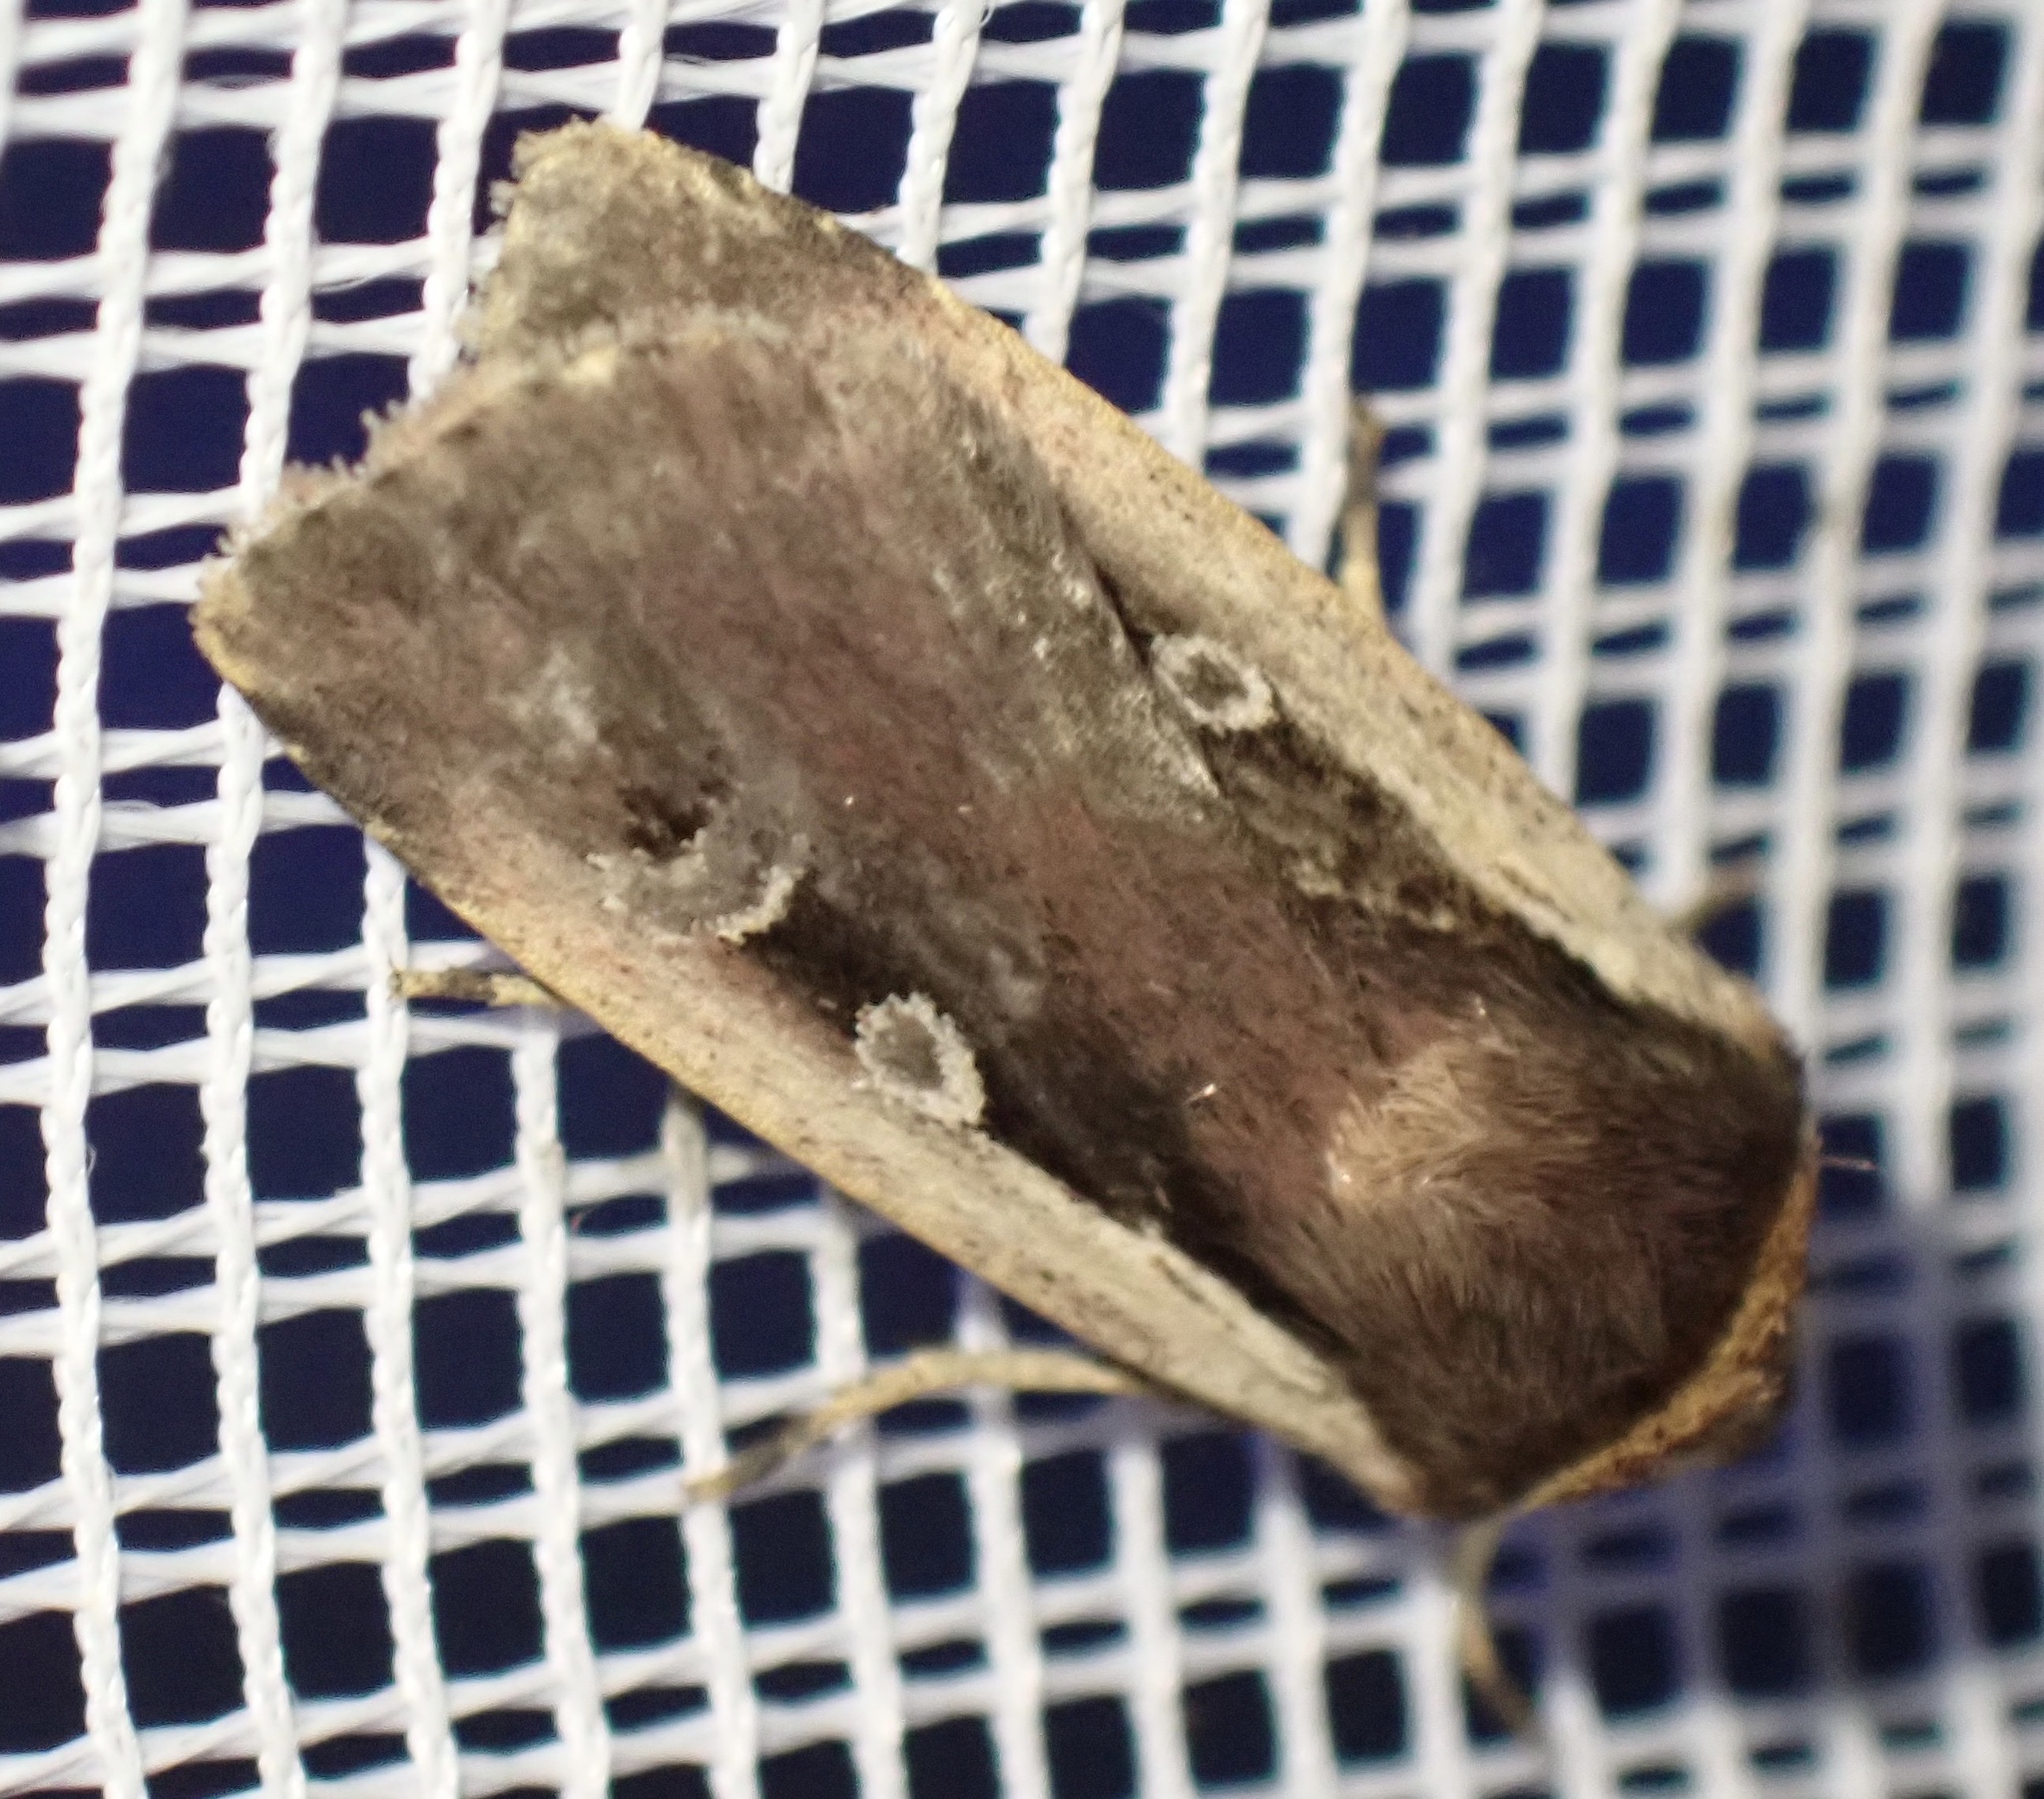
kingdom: Animalia
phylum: Arthropoda
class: Insecta
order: Lepidoptera
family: Noctuidae
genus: Ochropleura
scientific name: Ochropleura plecta
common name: Flame shoulder
